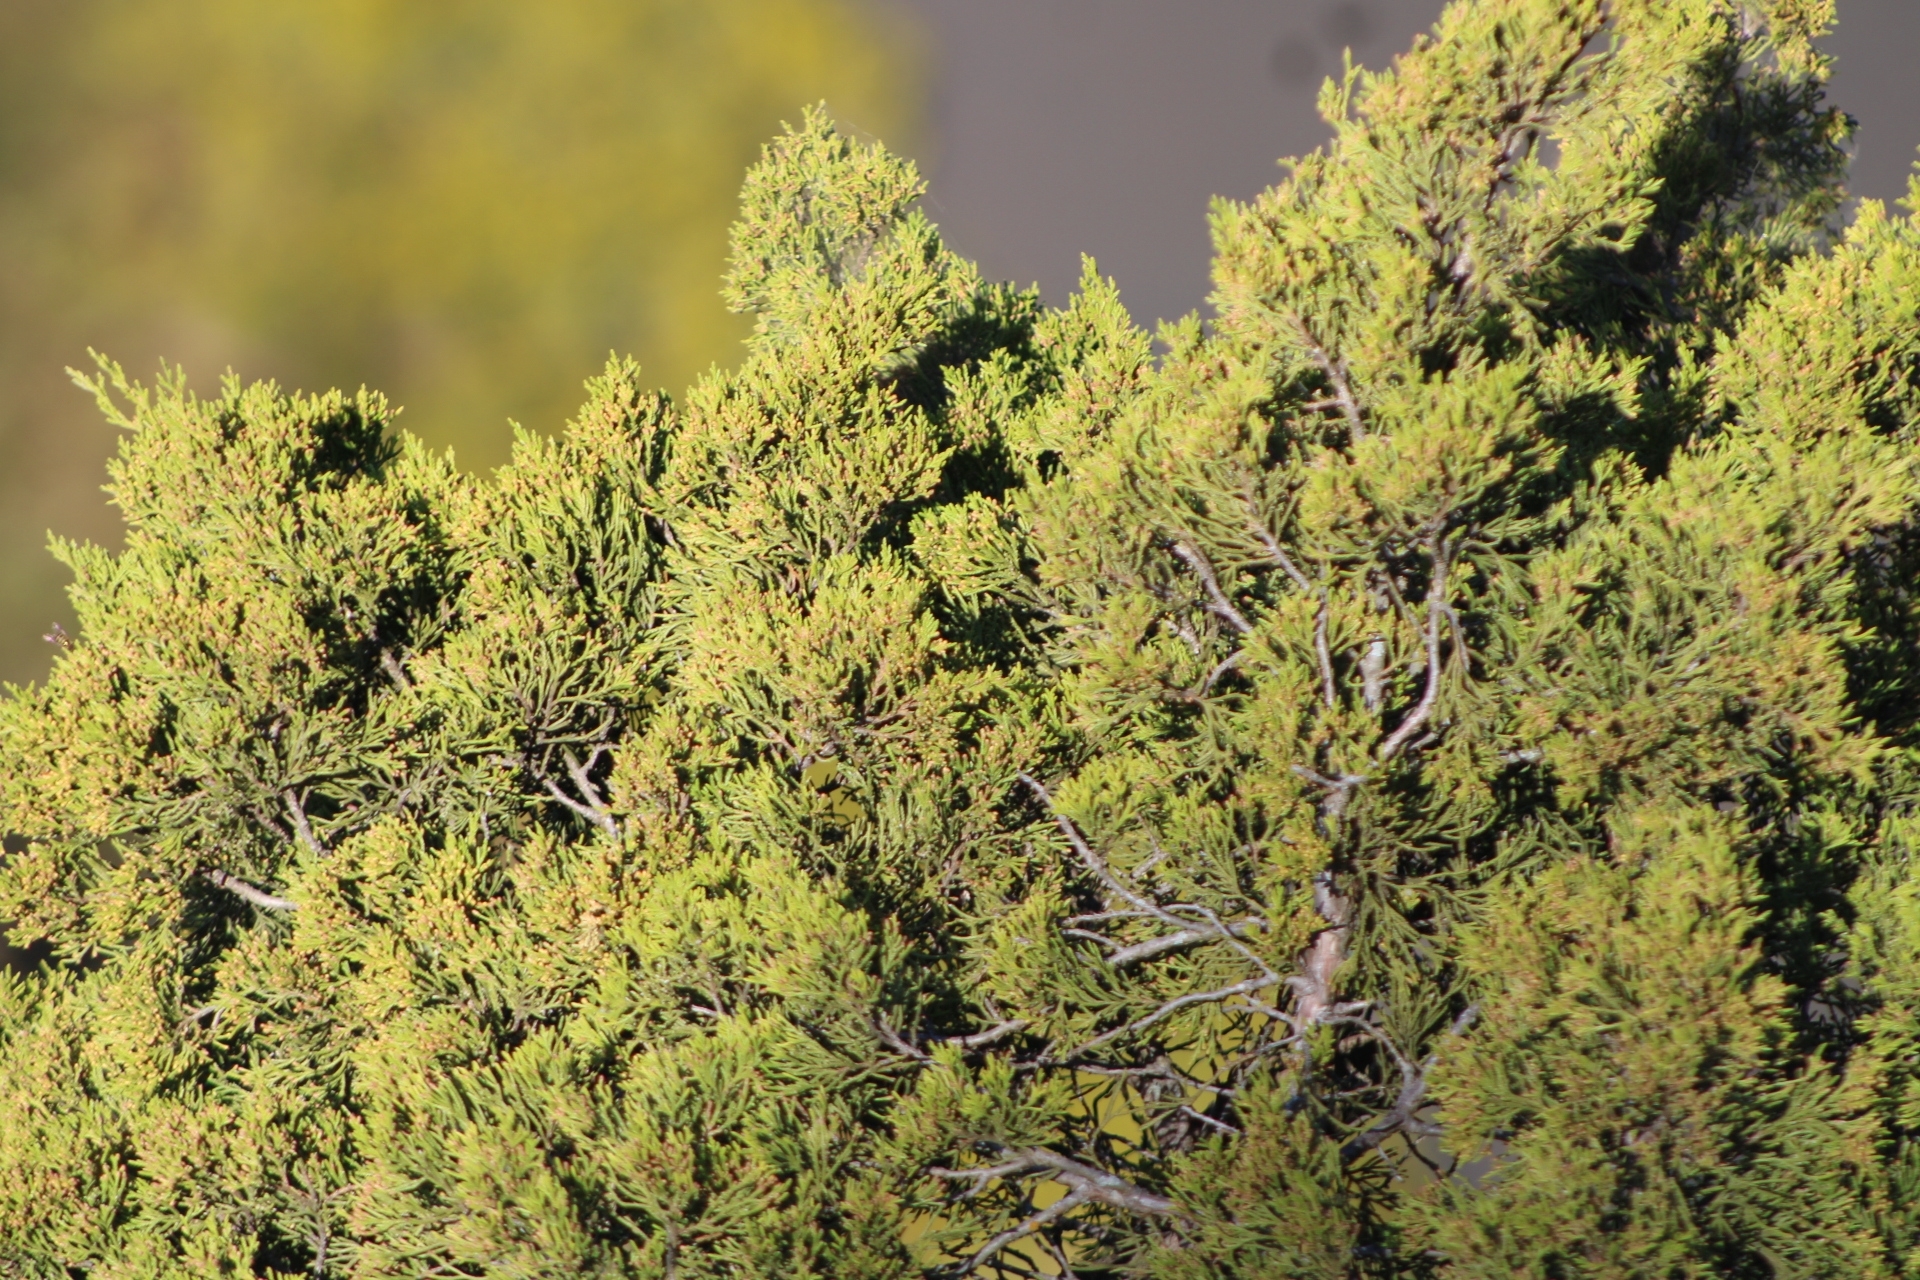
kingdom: Plantae
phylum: Tracheophyta
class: Pinopsida
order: Pinales
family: Cupressaceae
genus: Juniperus
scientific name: Juniperus virginiana
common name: Red juniper
